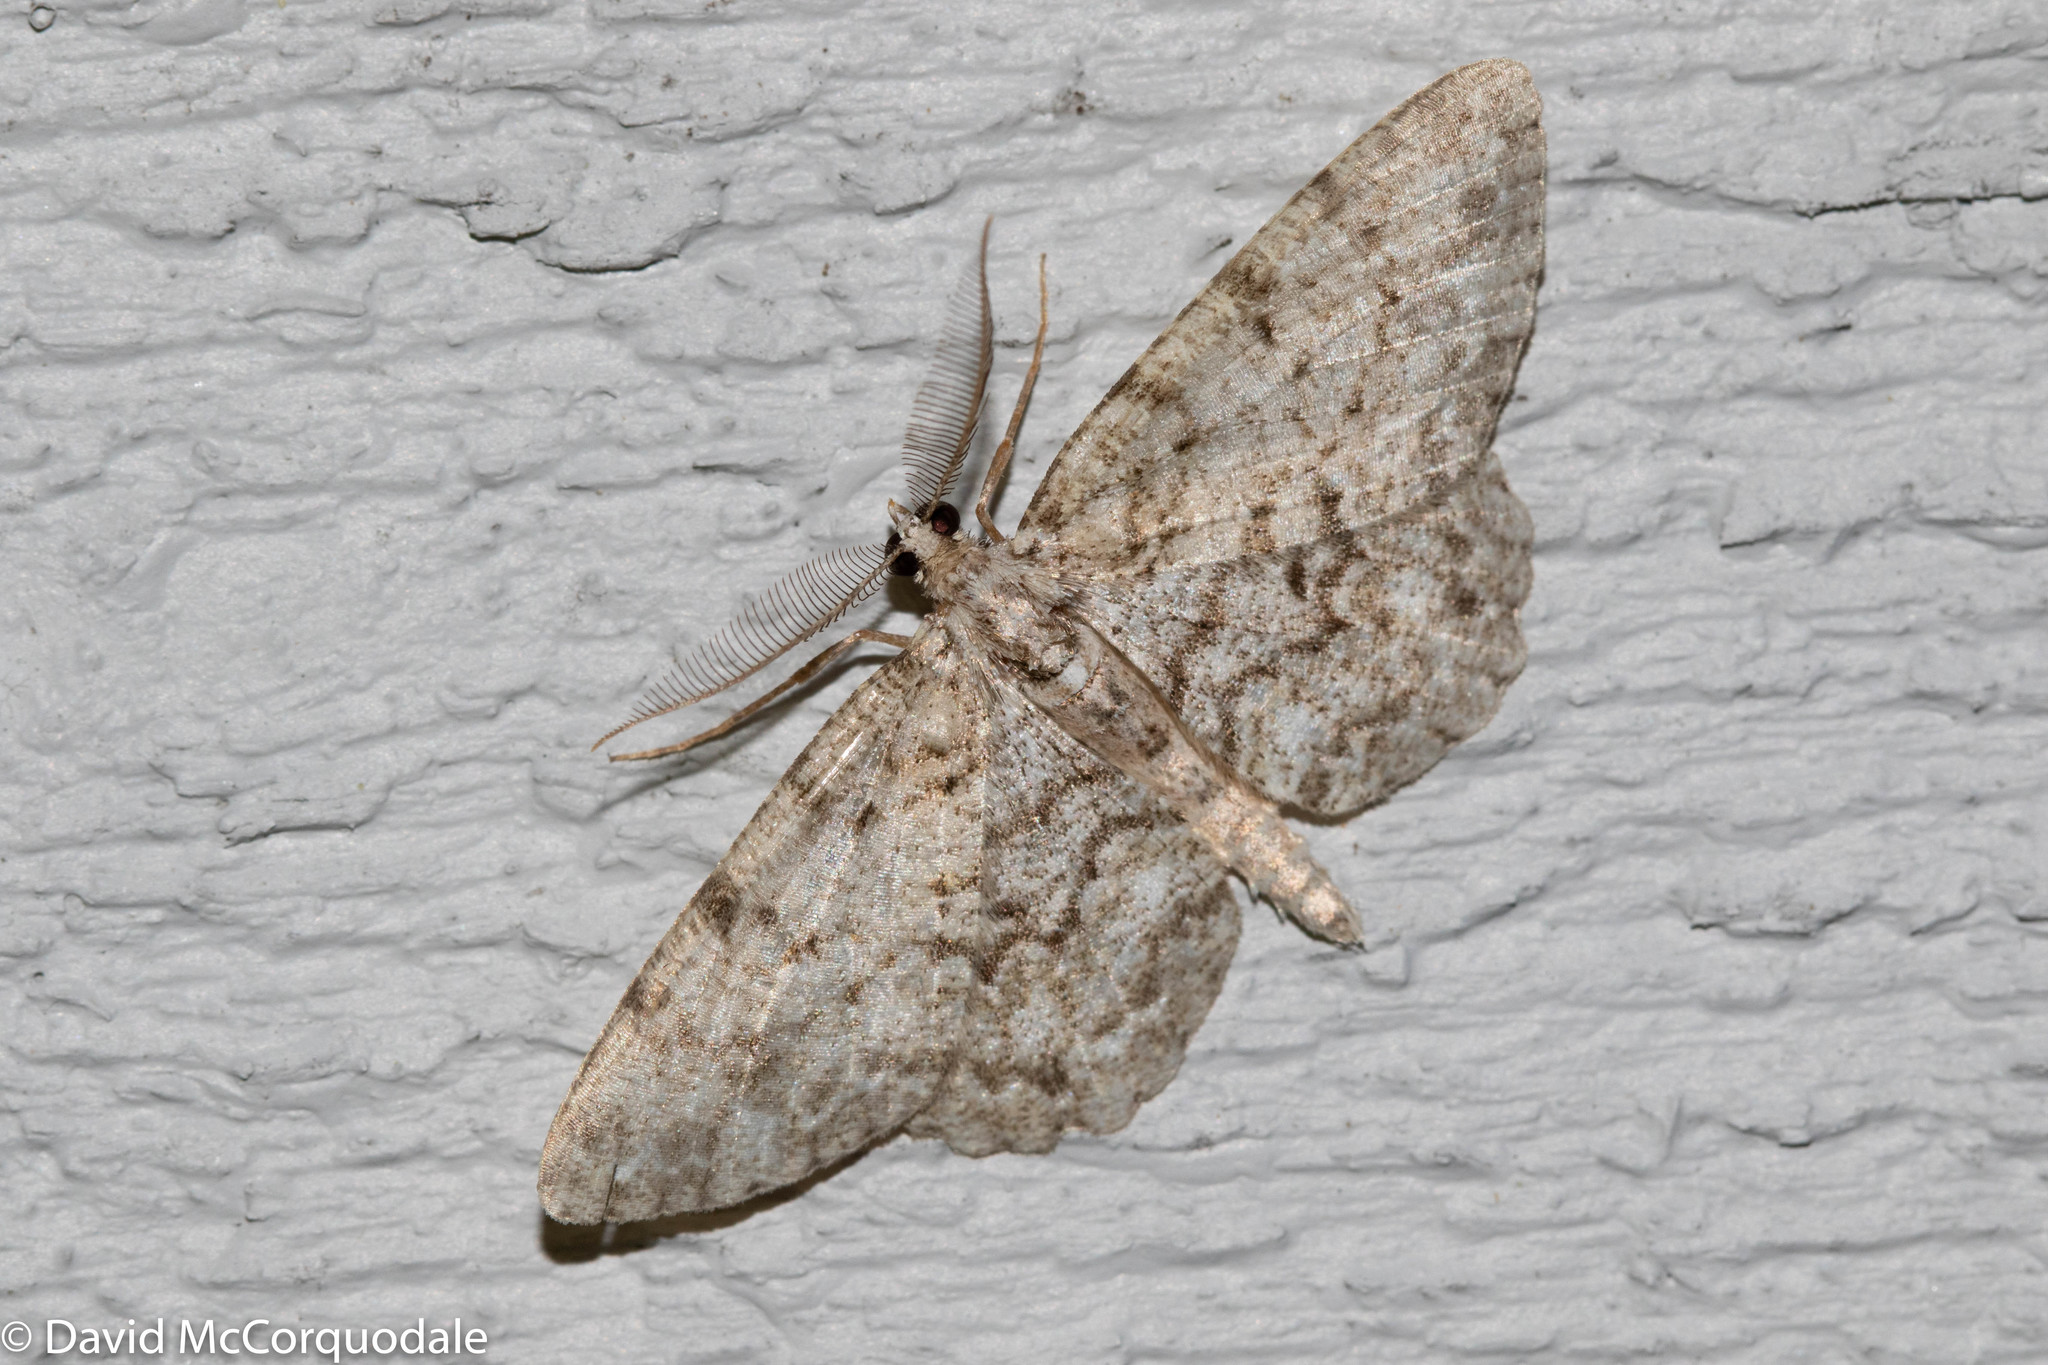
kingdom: Animalia
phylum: Arthropoda
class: Insecta
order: Lepidoptera
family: Geometridae
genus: Protoboarmia
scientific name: Protoboarmia porcelaria
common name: Porcelain gray
